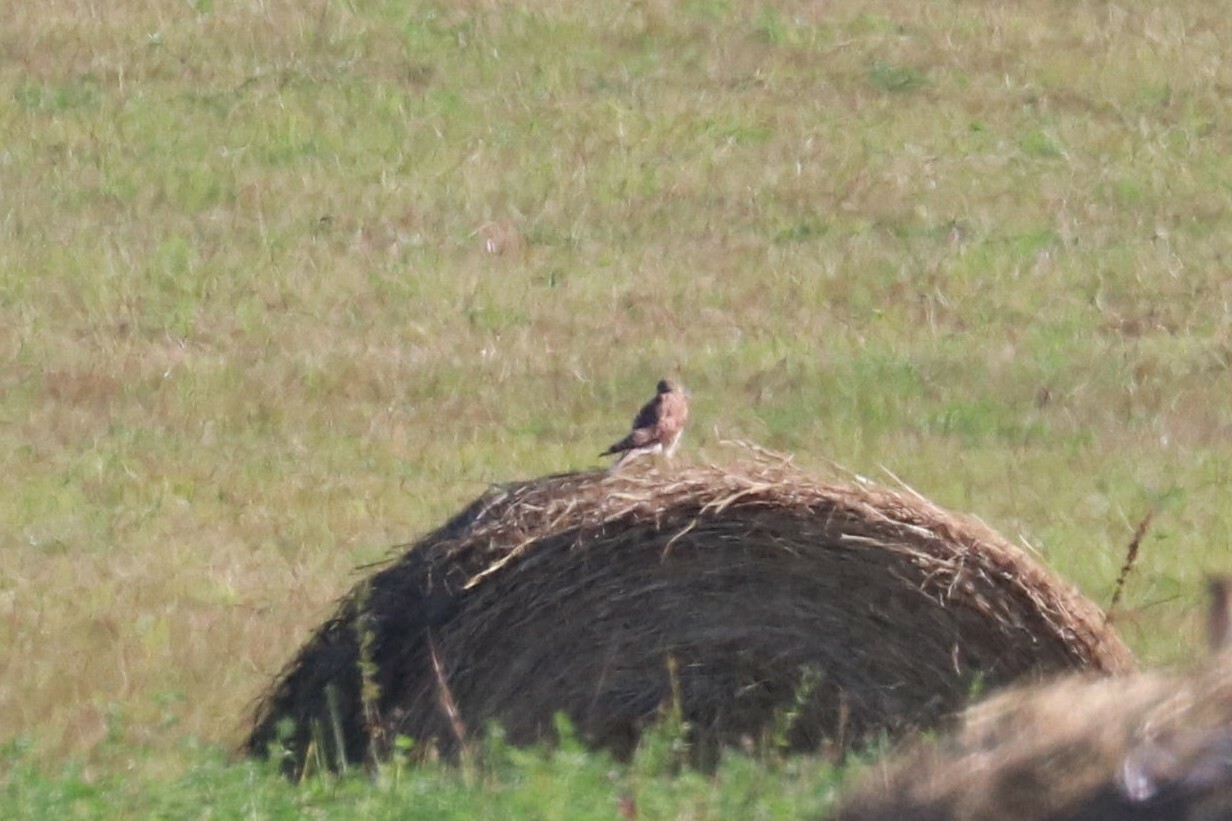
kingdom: Animalia
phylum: Chordata
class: Aves
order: Falconiformes
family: Falconidae
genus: Falco
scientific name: Falco tinnunculus
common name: Common kestrel
